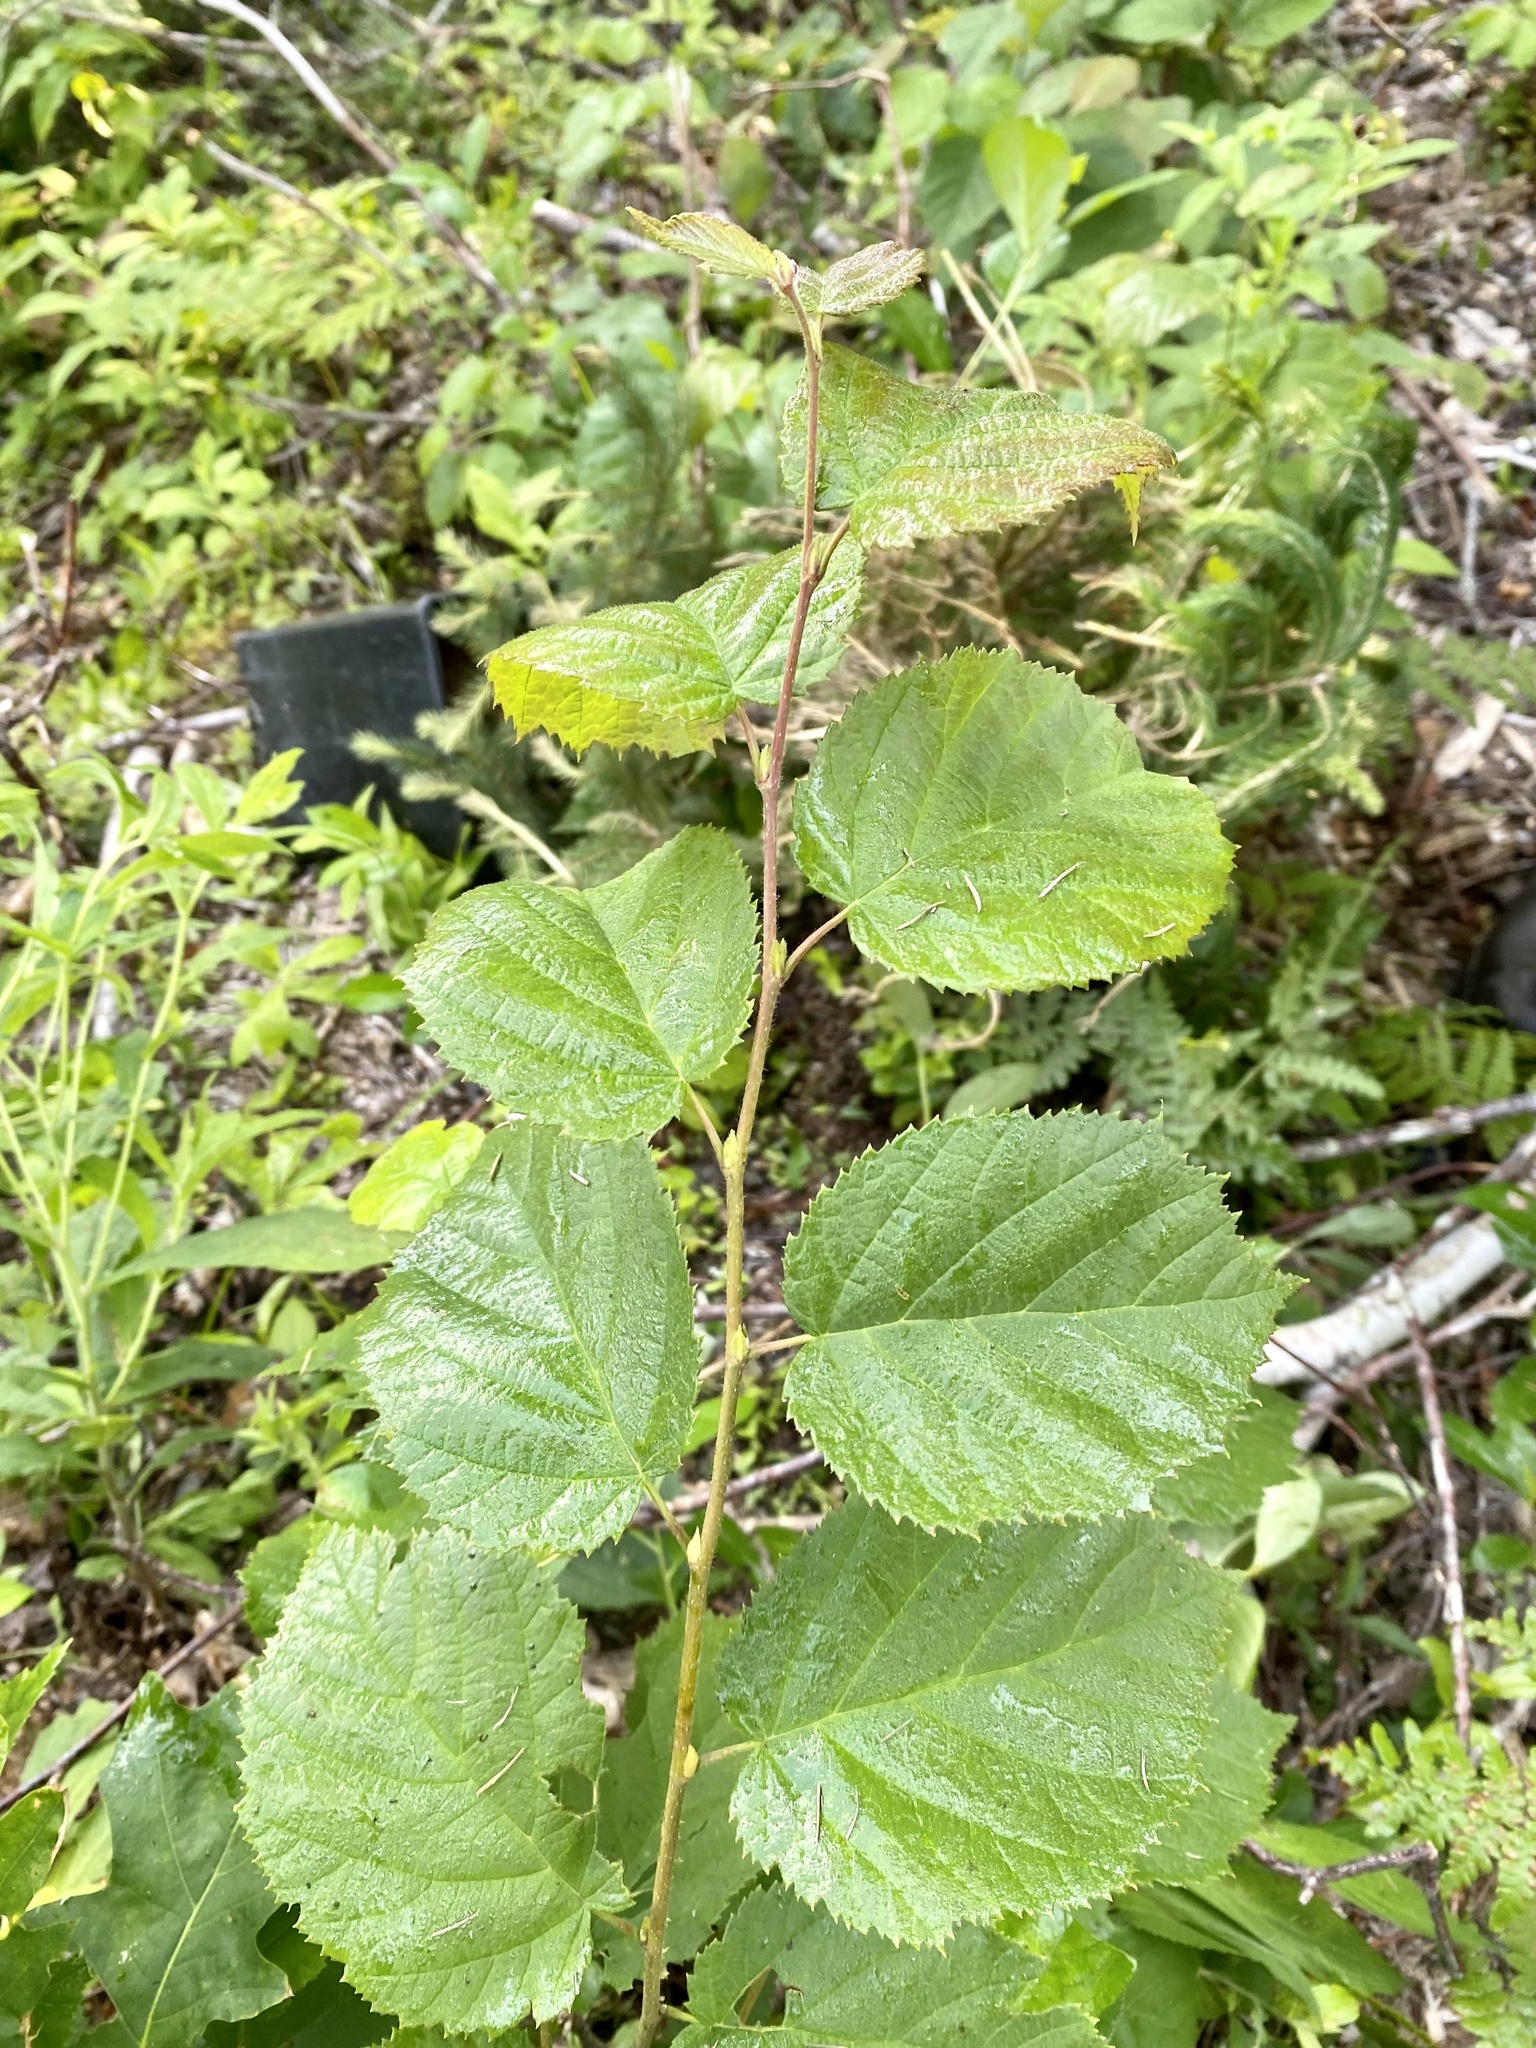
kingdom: Plantae
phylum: Tracheophyta
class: Magnoliopsida
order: Fagales
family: Betulaceae
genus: Corylus
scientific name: Corylus cornuta
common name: Beaked hazel
